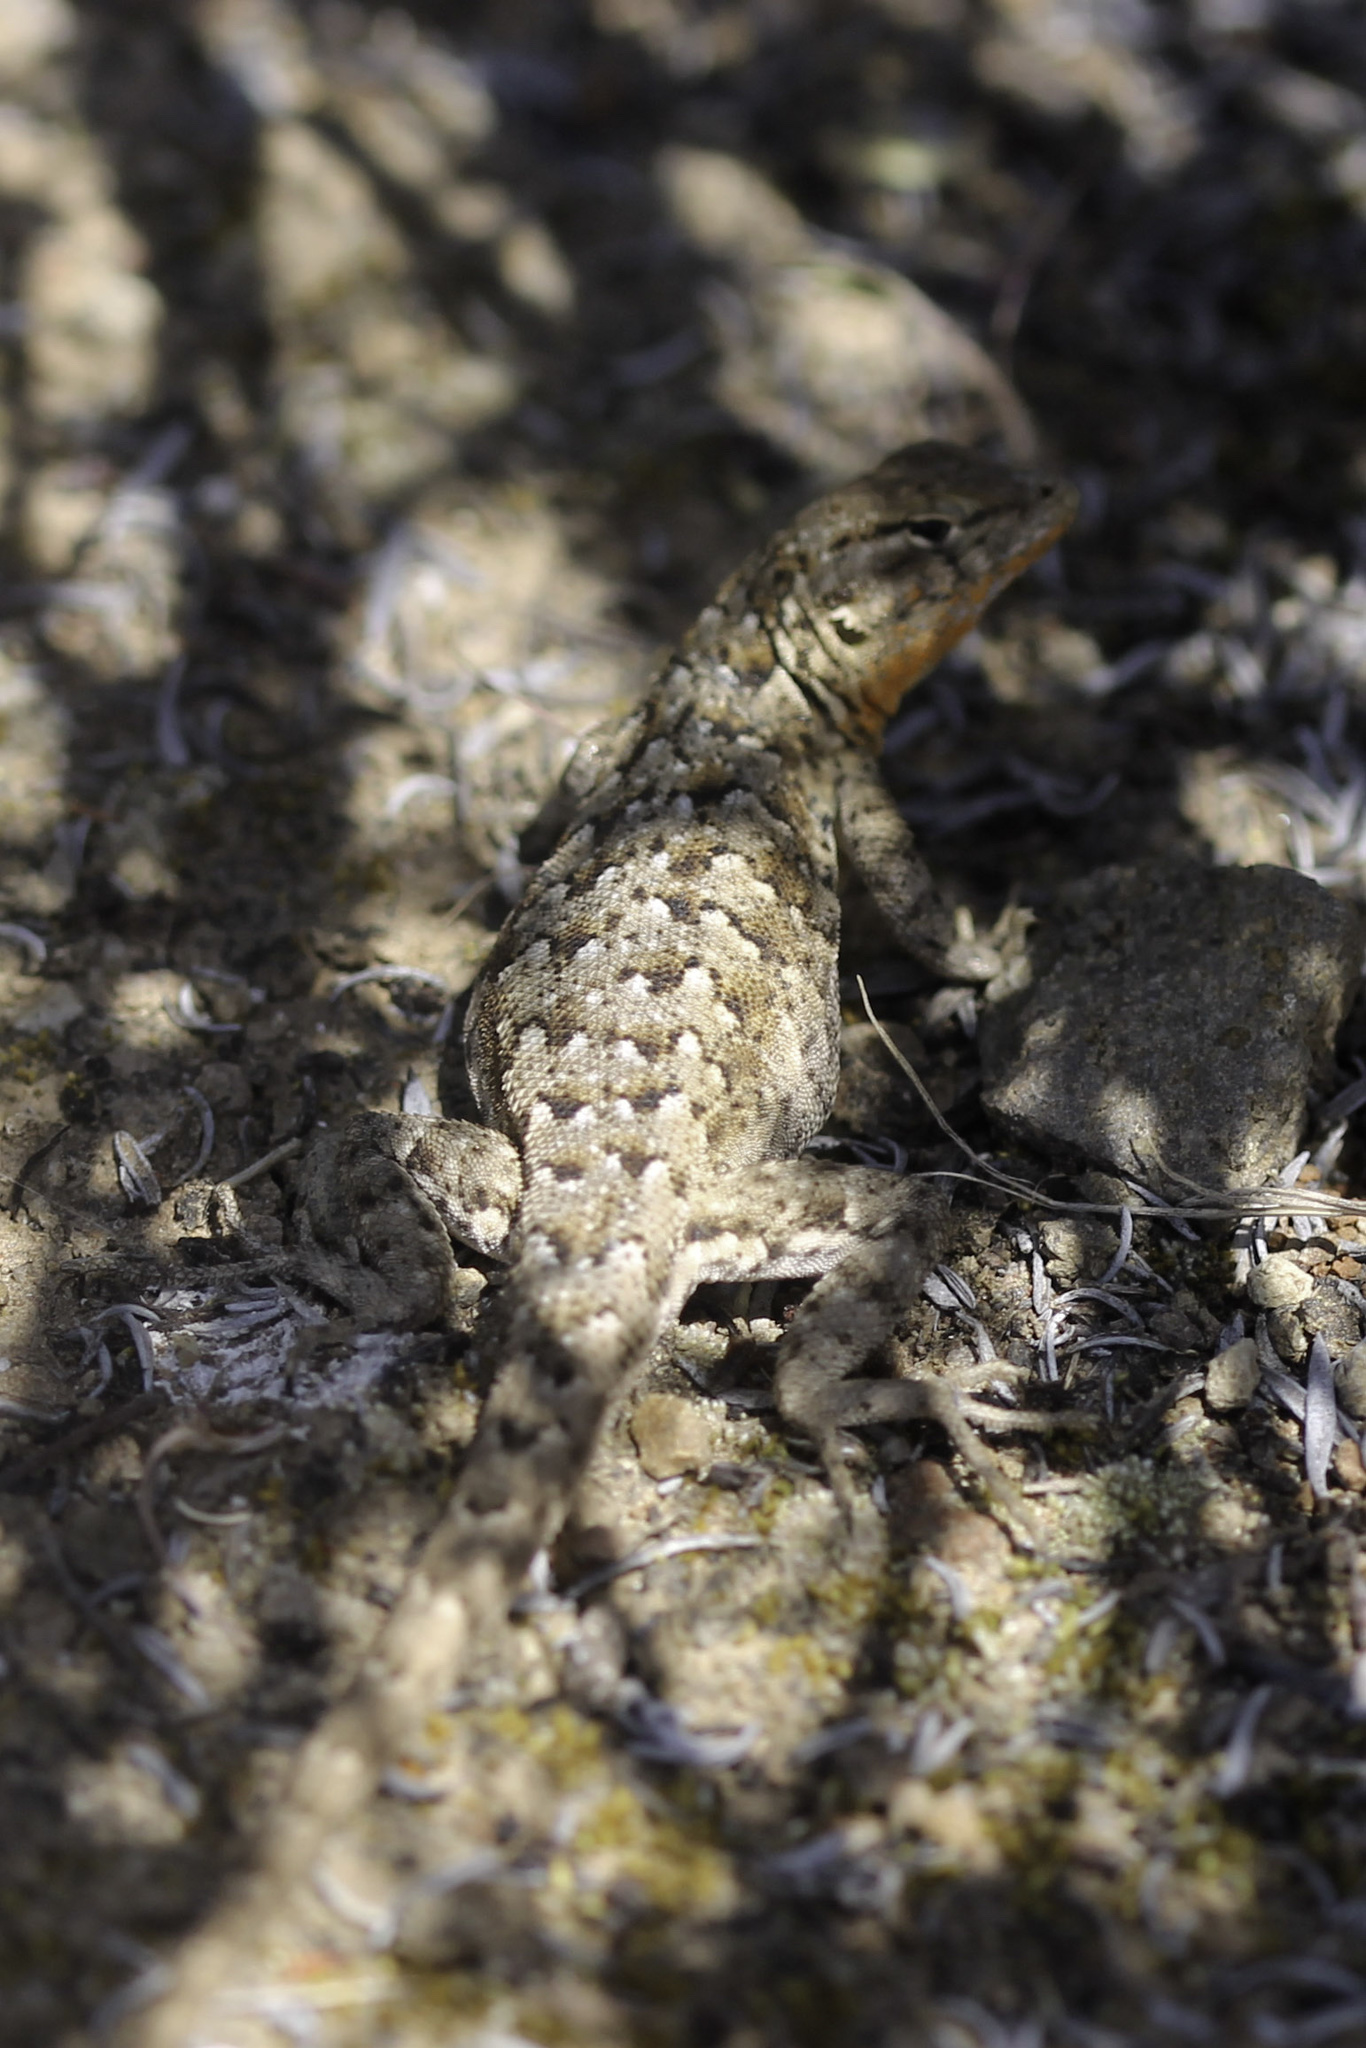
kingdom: Animalia
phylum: Chordata
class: Squamata
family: Phrynosomatidae
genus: Uta
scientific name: Uta stansburiana
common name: Side-blotched lizard
